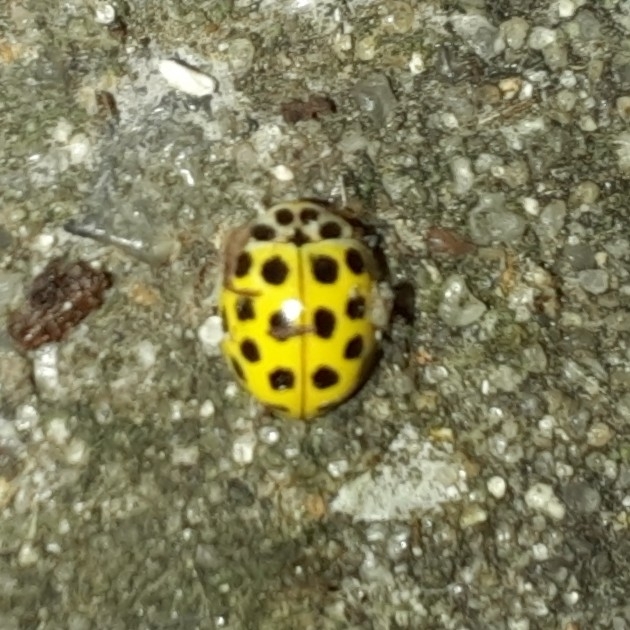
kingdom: Animalia
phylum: Arthropoda
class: Insecta
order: Coleoptera
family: Coccinellidae
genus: Psyllobora
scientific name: Psyllobora vigintiduopunctata
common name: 22-spot ladybird
